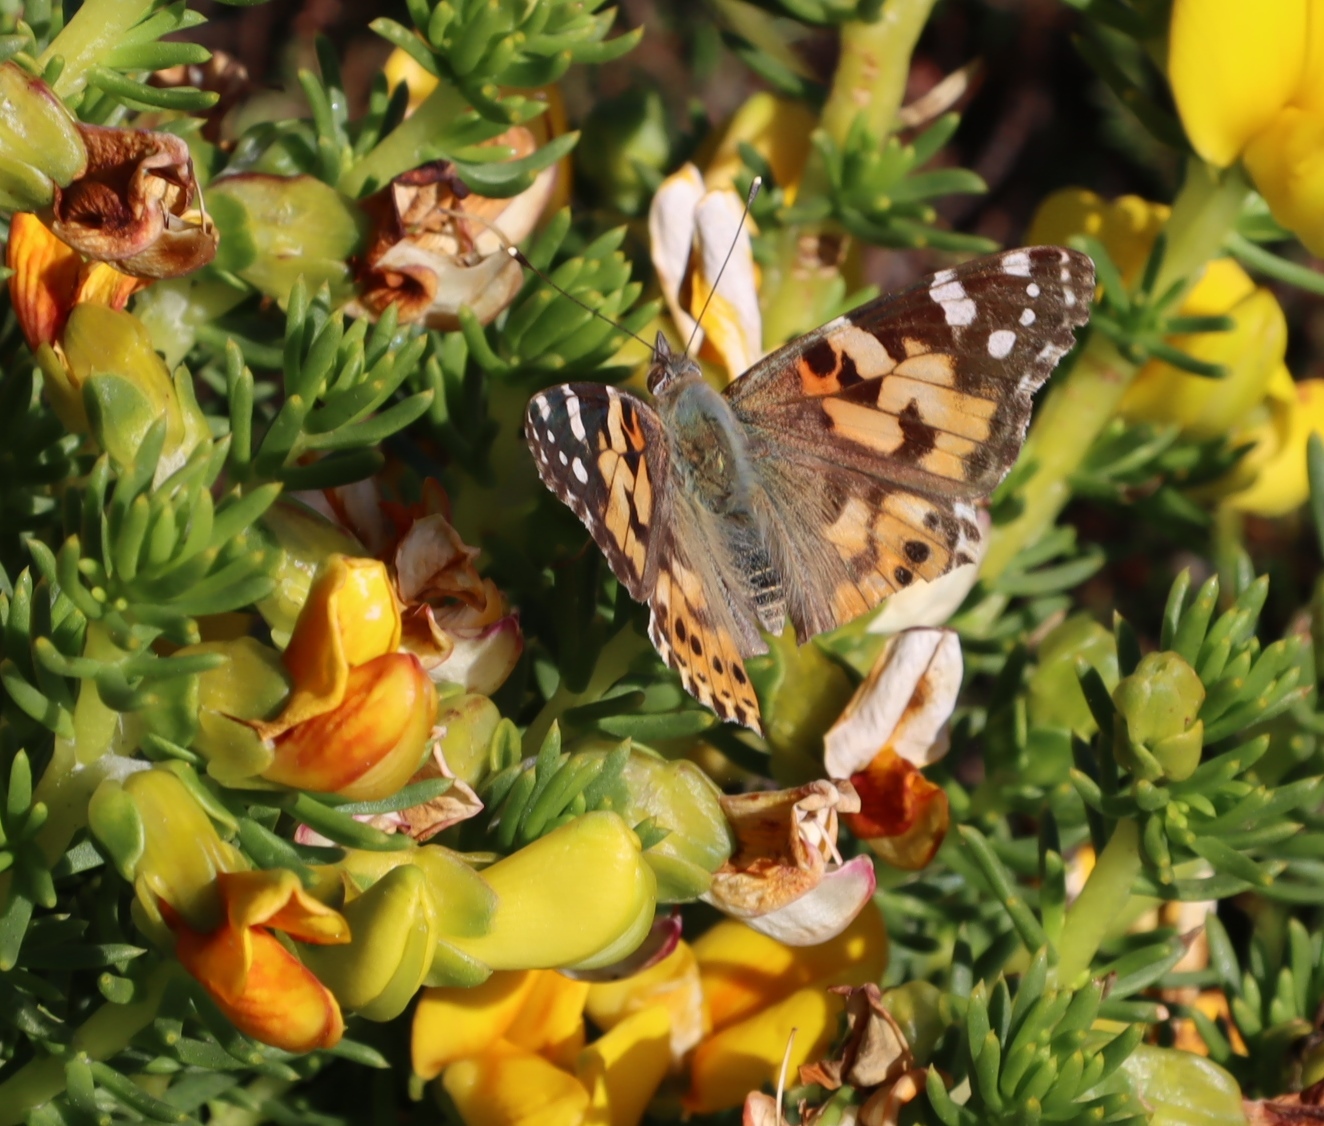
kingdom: Animalia
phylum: Arthropoda
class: Insecta
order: Lepidoptera
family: Nymphalidae
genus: Vanessa
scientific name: Vanessa cardui
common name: Painted lady
